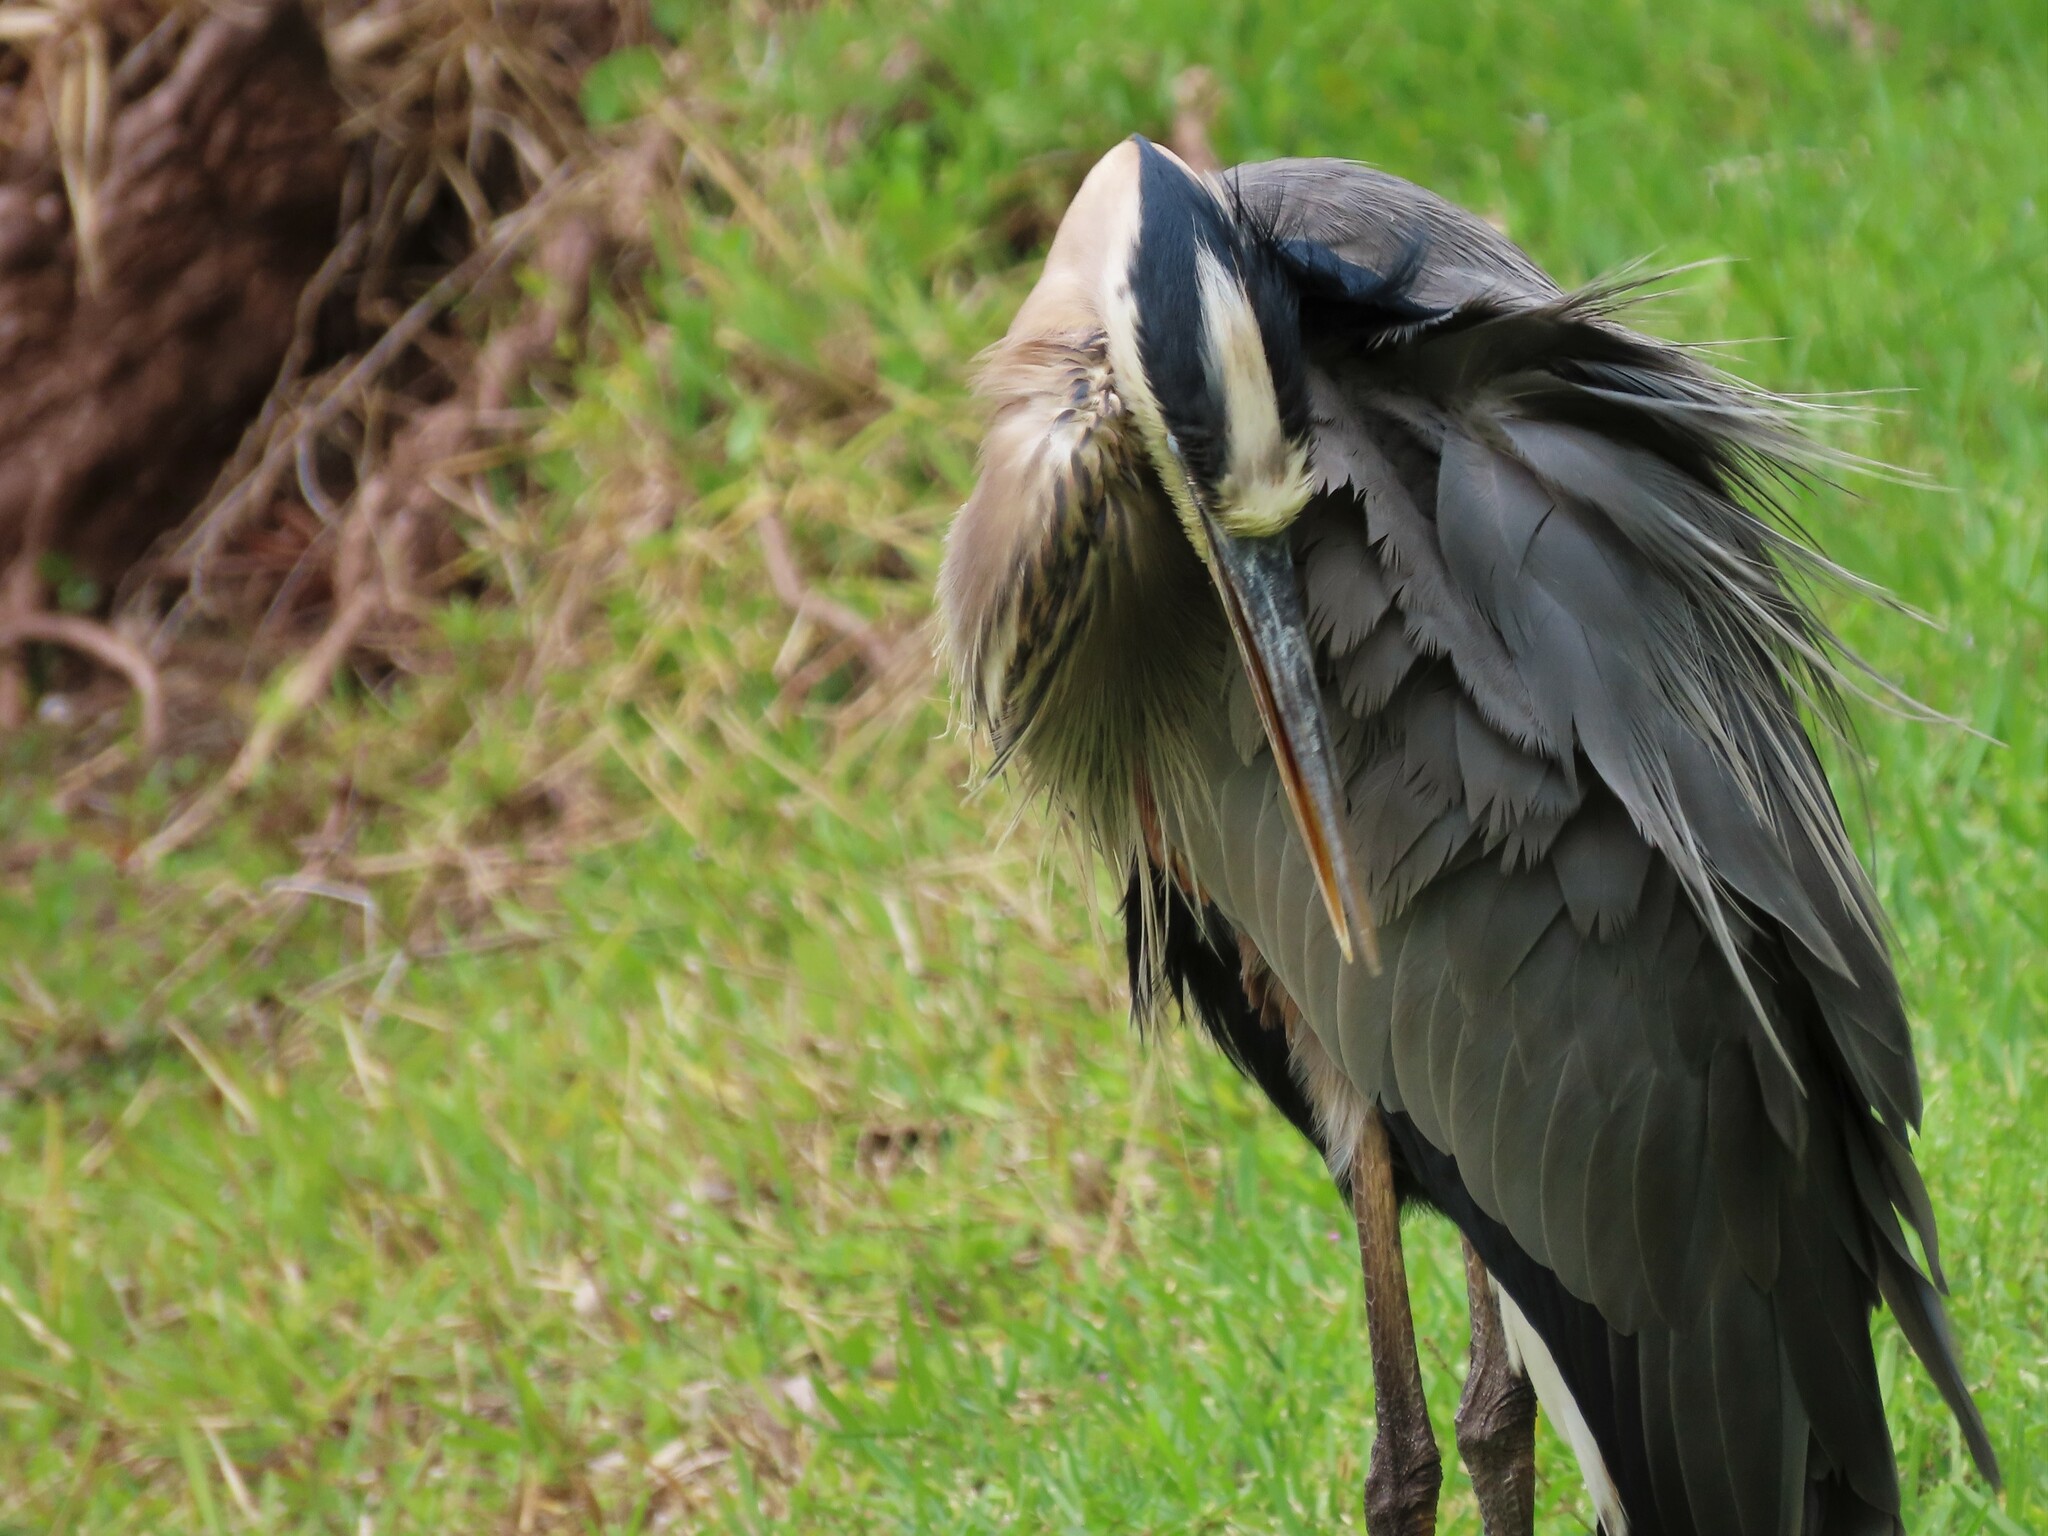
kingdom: Animalia
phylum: Chordata
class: Aves
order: Pelecaniformes
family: Ardeidae
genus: Ardea
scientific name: Ardea herodias
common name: Great blue heron
